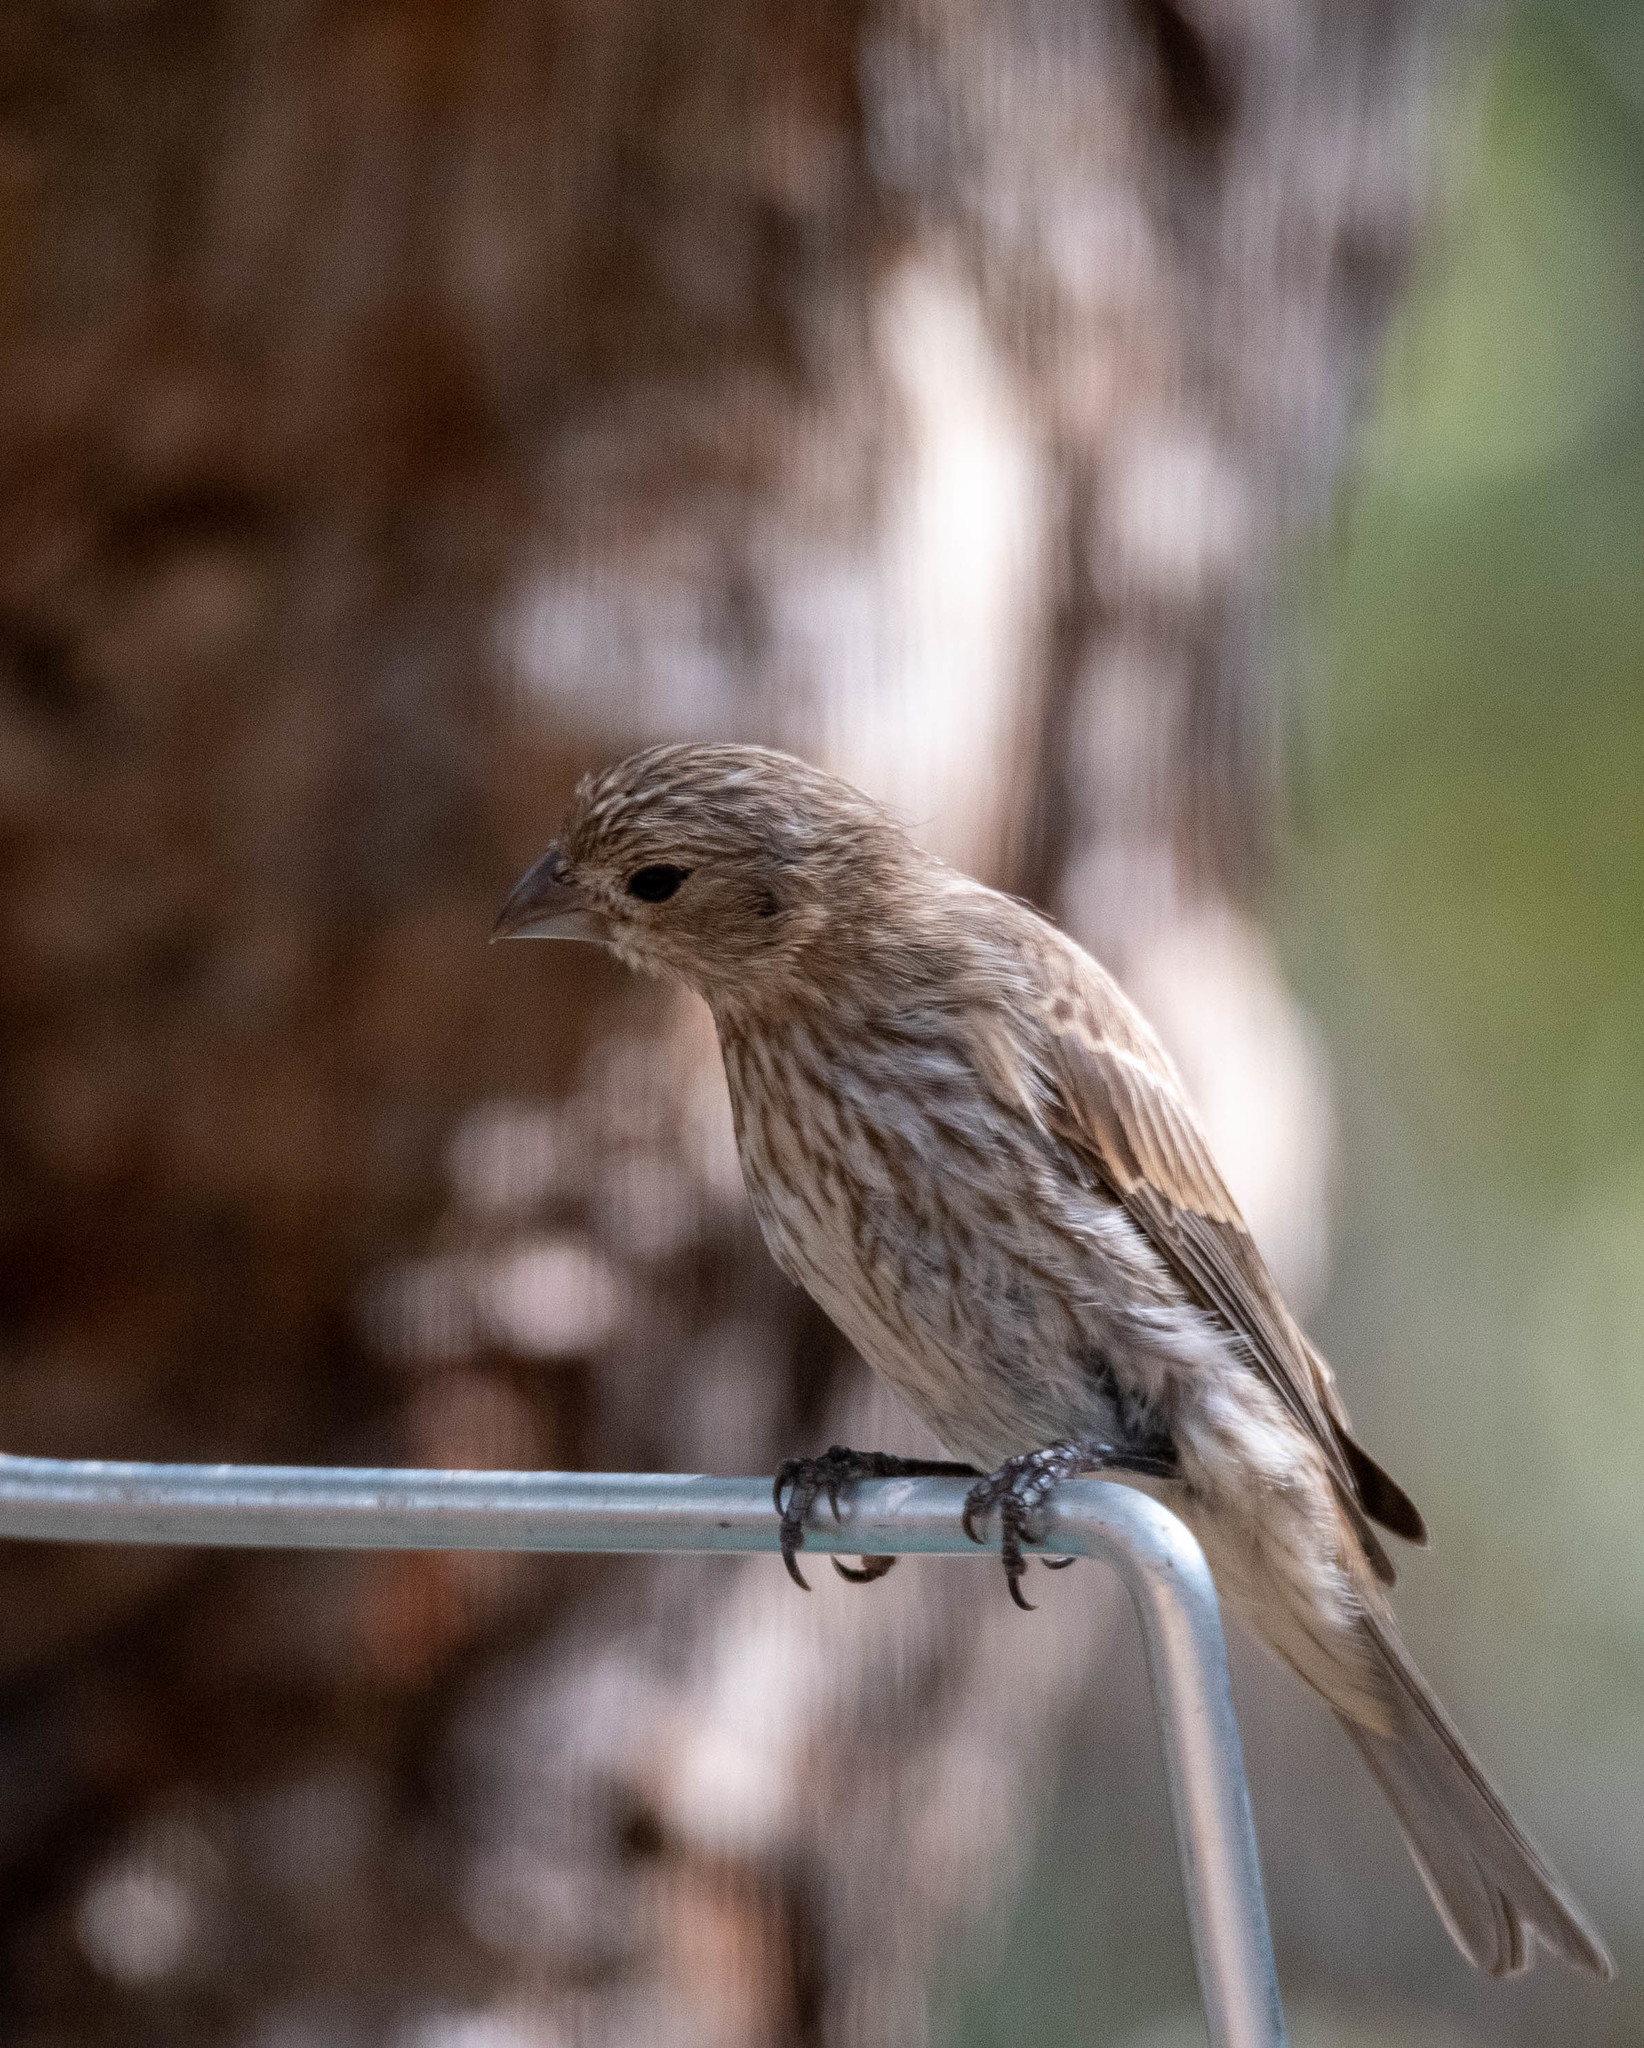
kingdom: Animalia
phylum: Chordata
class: Aves
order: Passeriformes
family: Fringillidae
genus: Haemorhous
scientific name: Haemorhous mexicanus
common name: House finch
